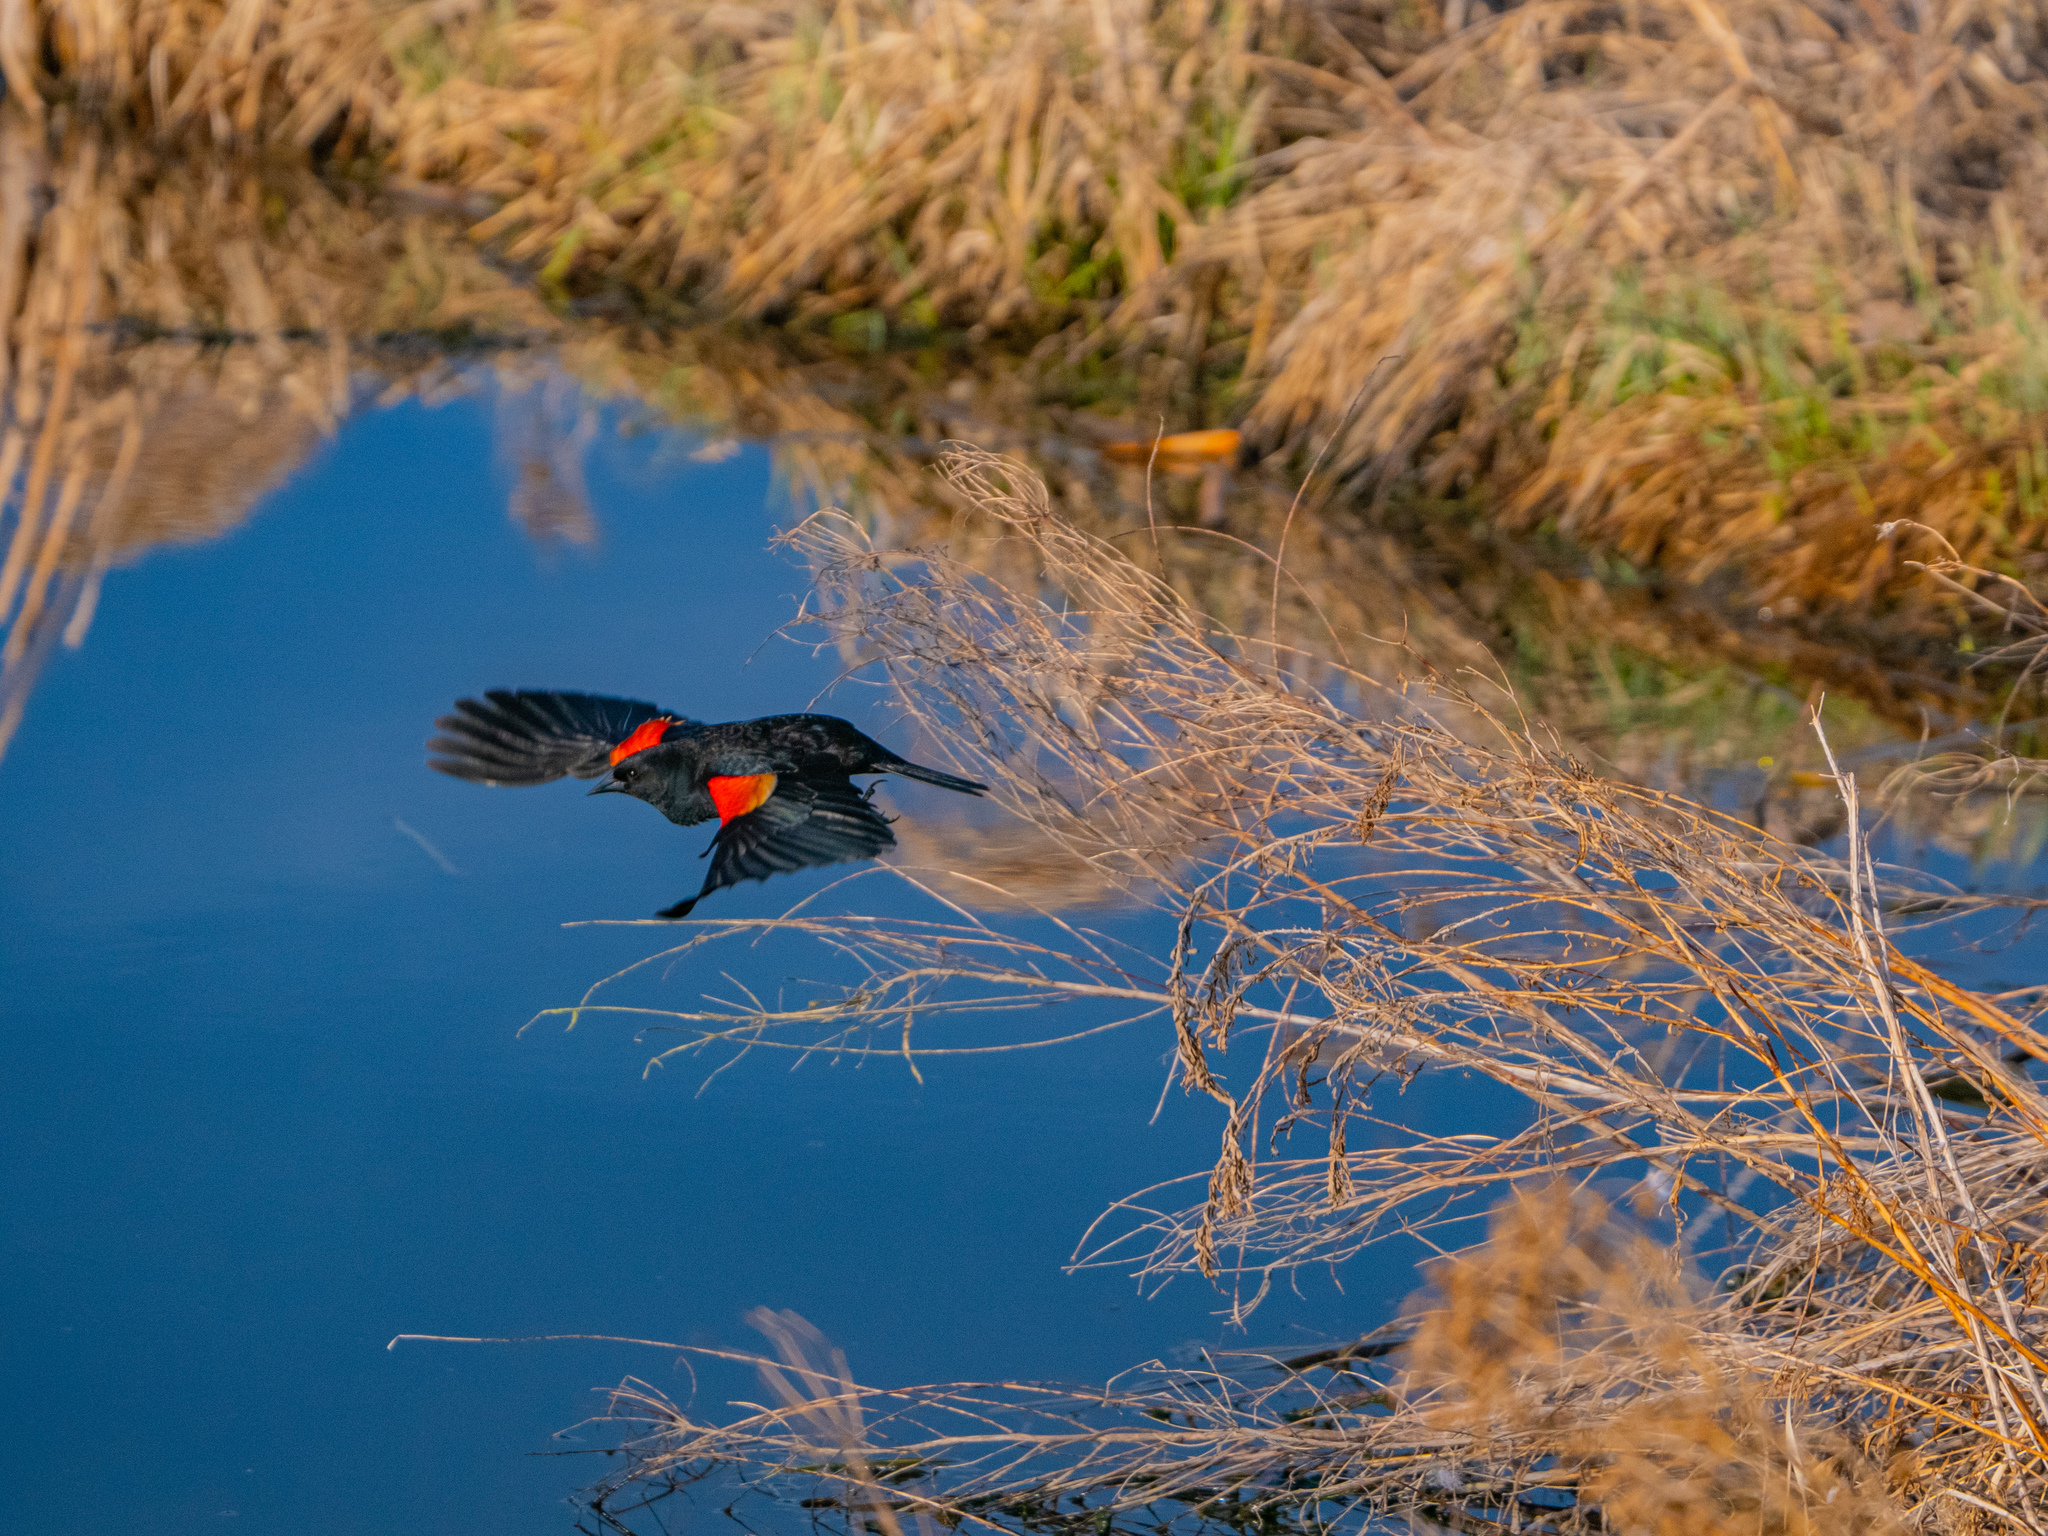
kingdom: Animalia
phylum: Chordata
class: Aves
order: Passeriformes
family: Icteridae
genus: Agelaius
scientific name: Agelaius phoeniceus
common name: Red-winged blackbird
